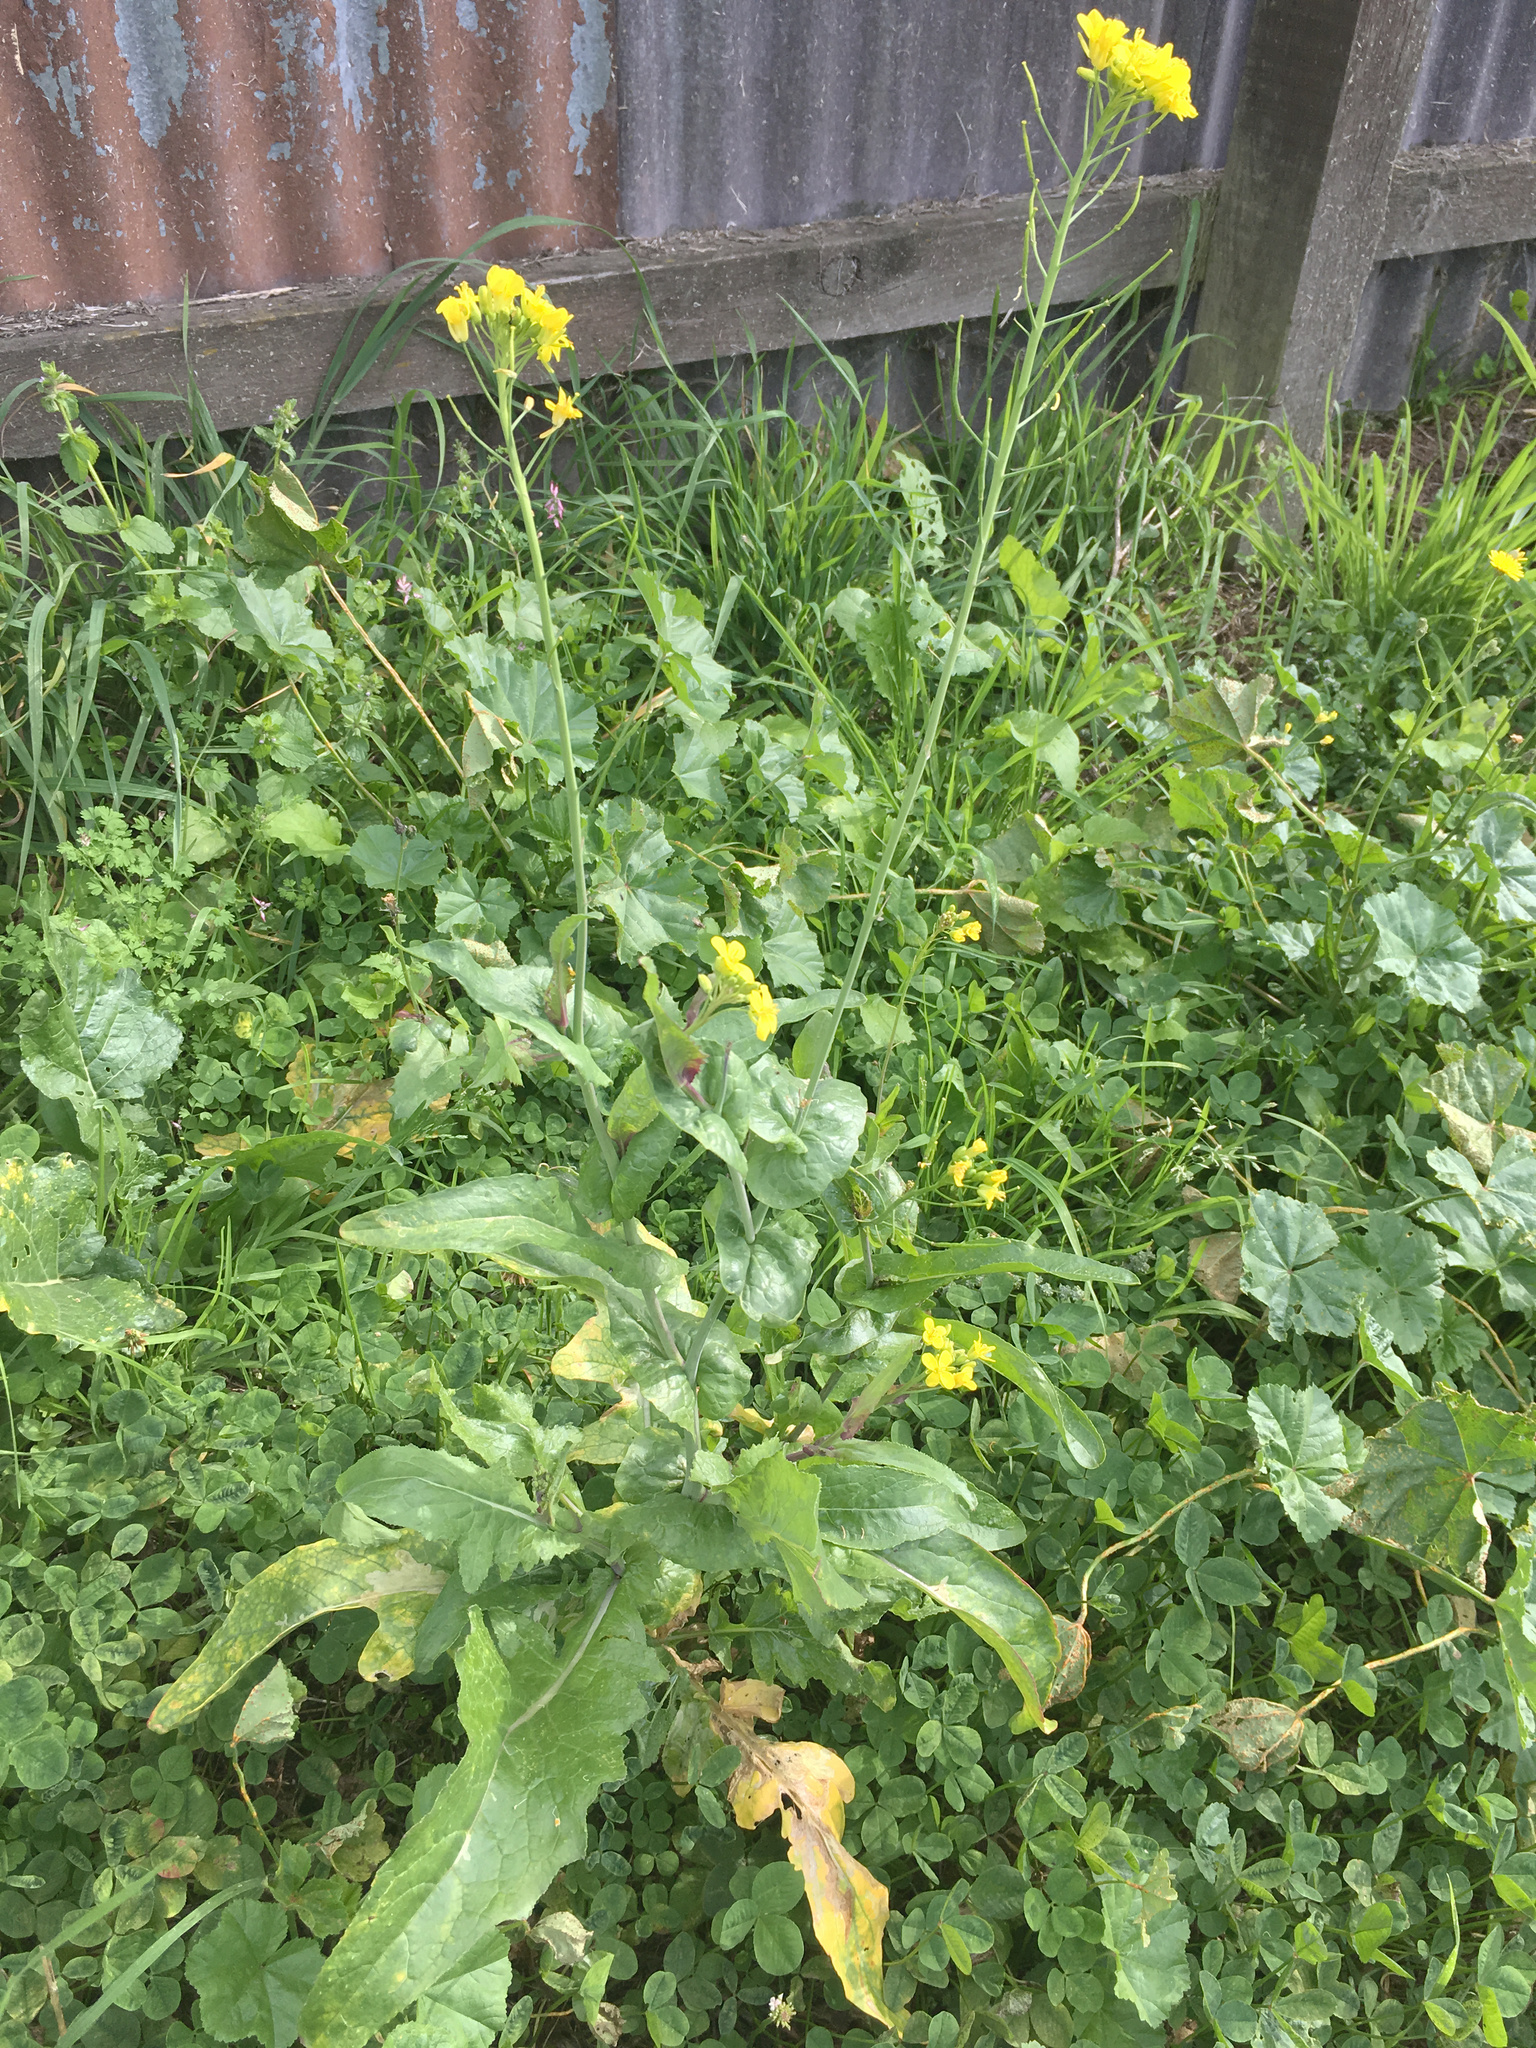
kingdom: Plantae
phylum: Tracheophyta
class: Magnoliopsida
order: Brassicales
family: Brassicaceae
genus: Brassica
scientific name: Brassica rapa
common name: Field mustard
